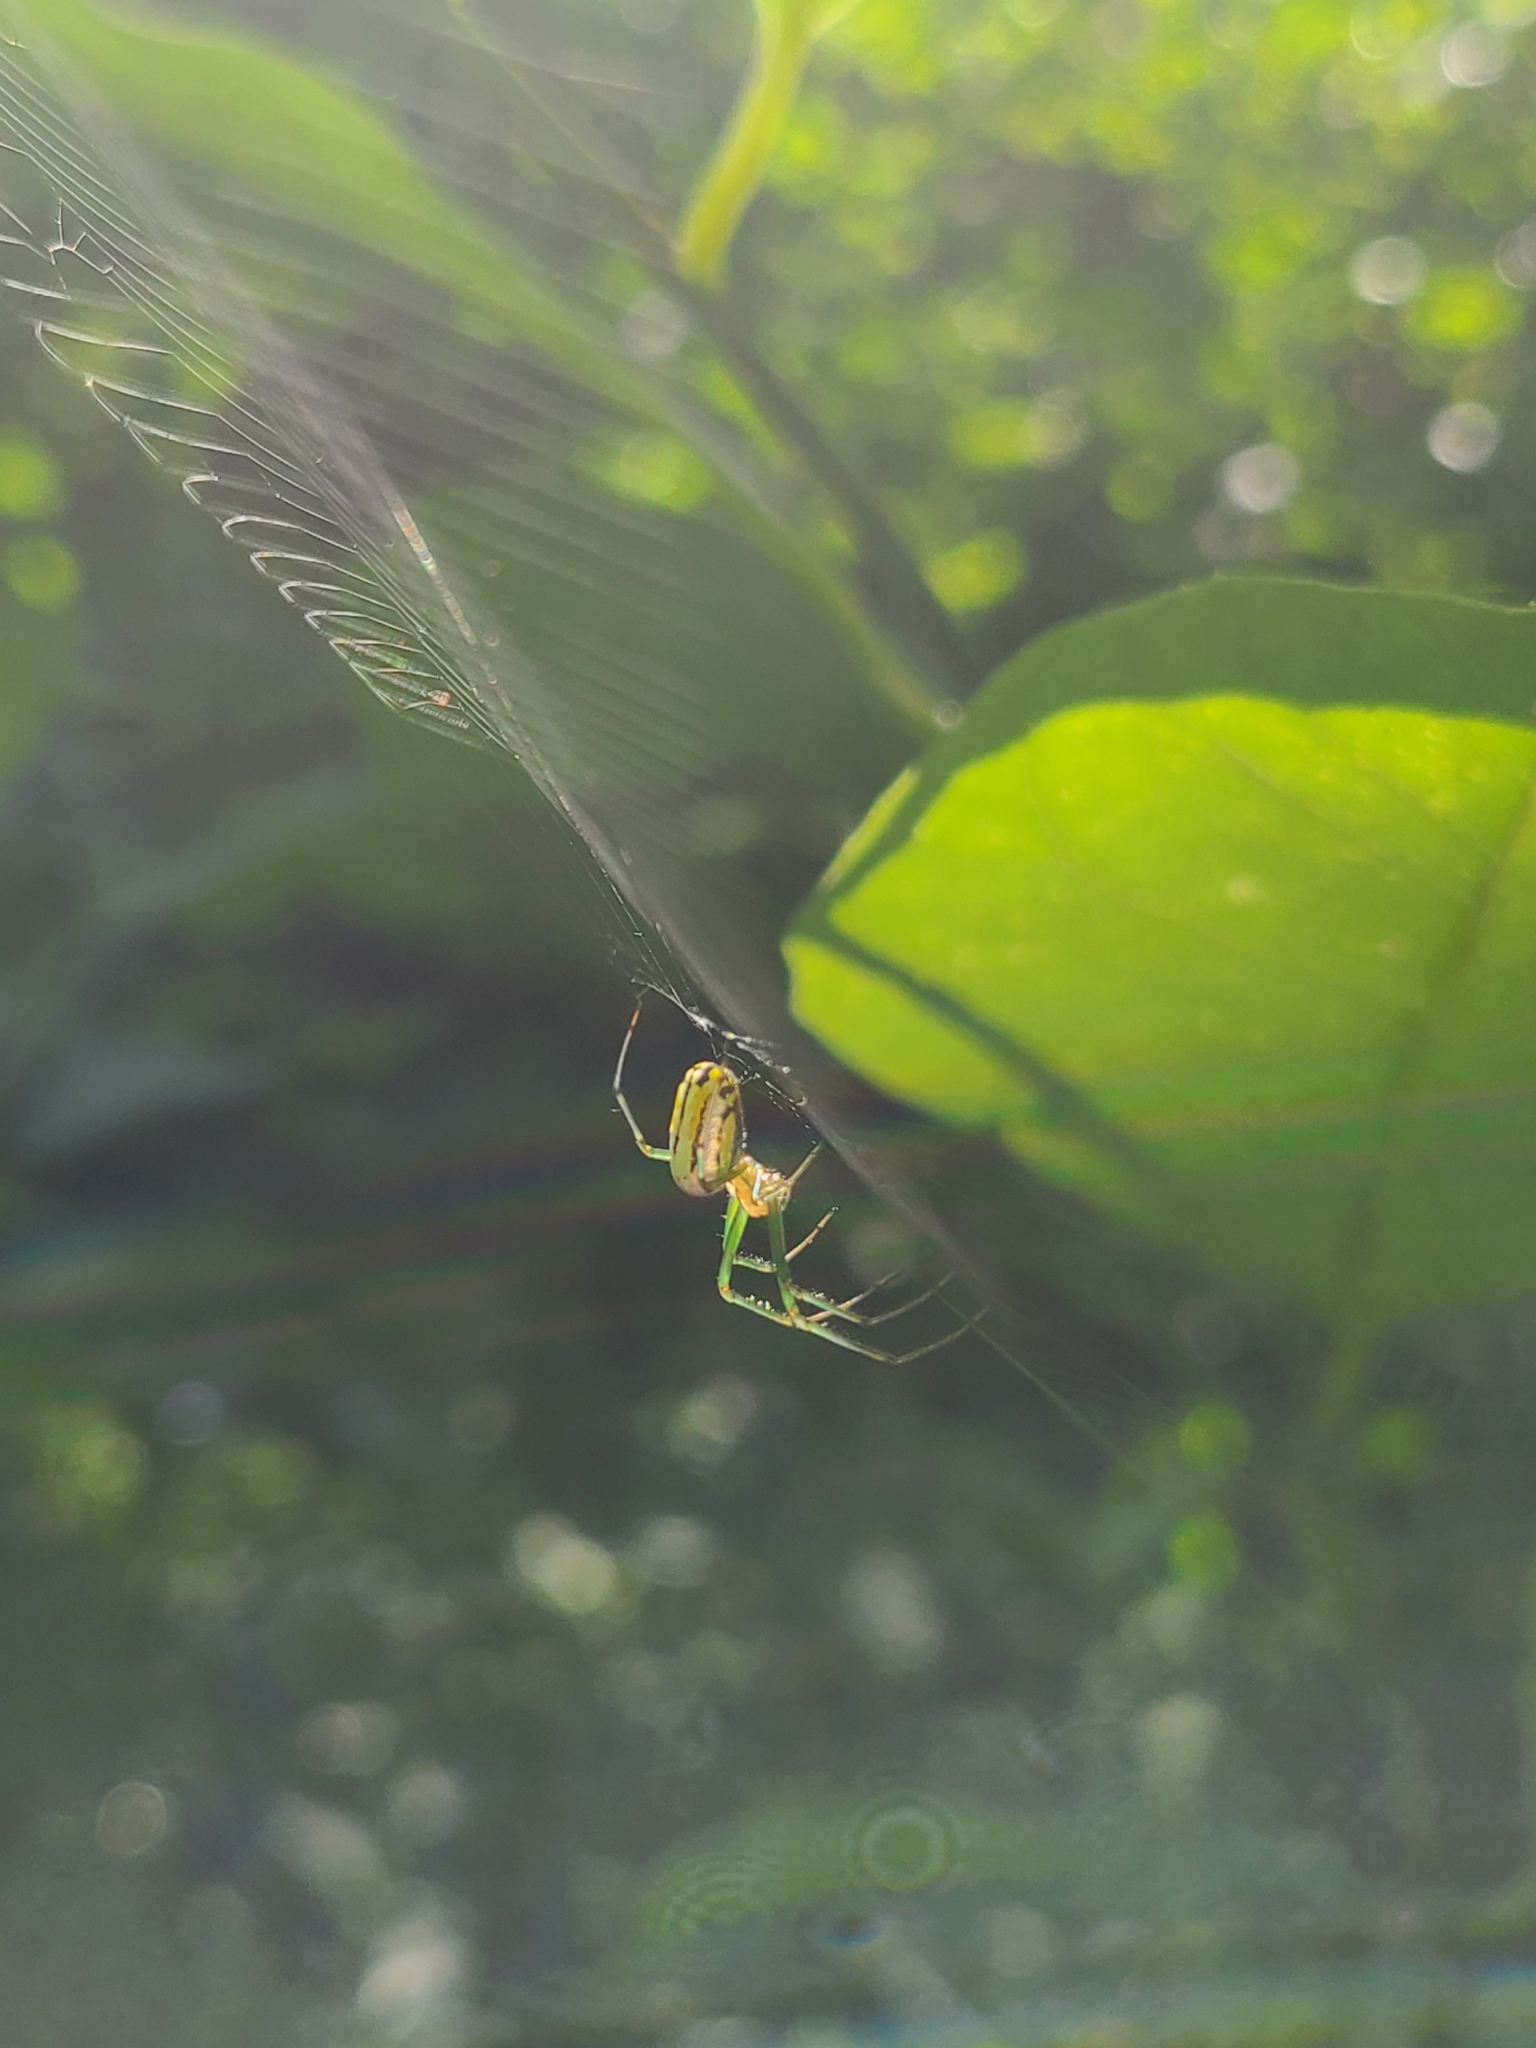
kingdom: Animalia
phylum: Arthropoda
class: Arachnida
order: Araneae
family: Tetragnathidae
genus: Leucauge
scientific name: Leucauge venusta
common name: Longjawed orb weavers
